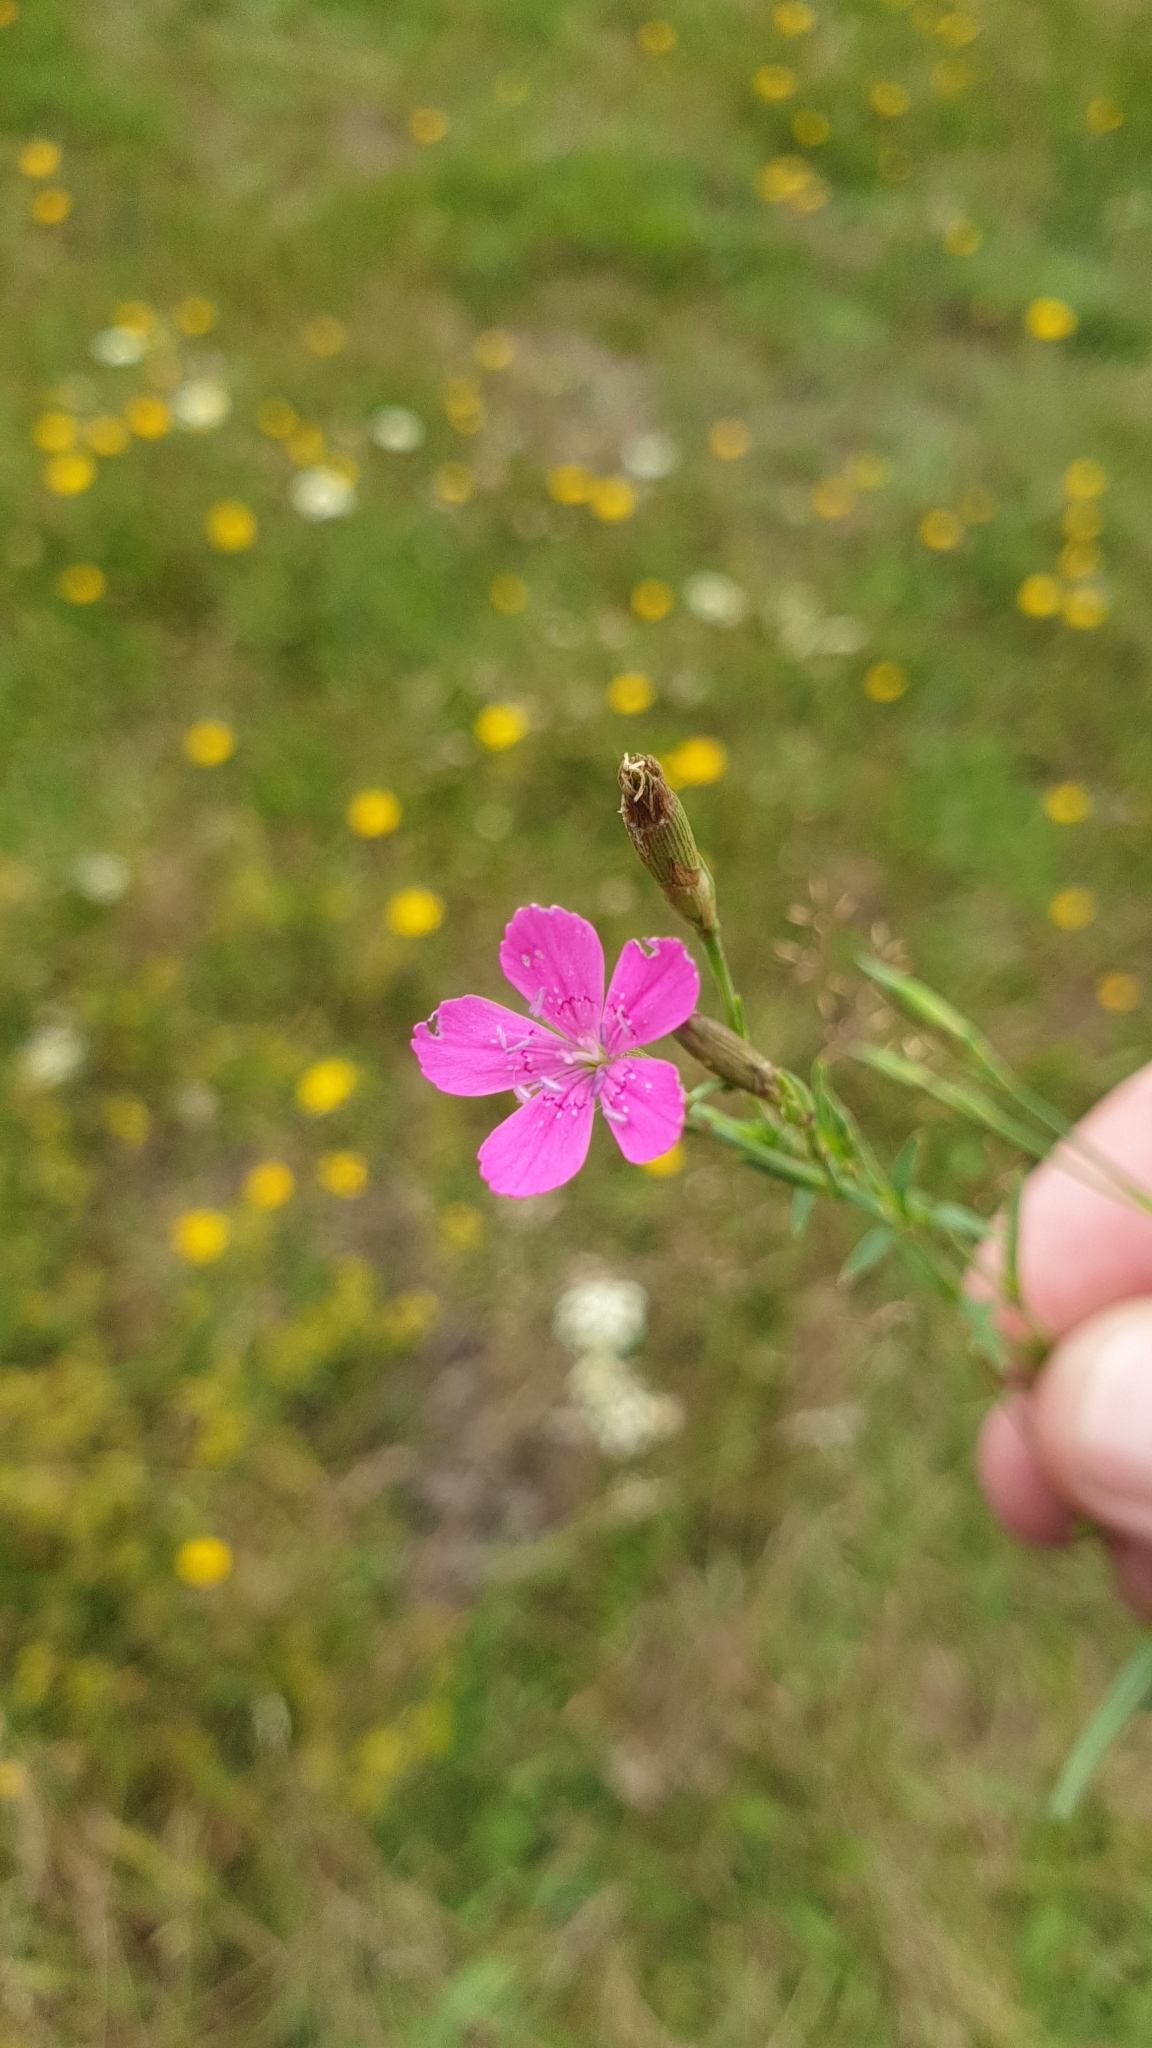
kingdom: Plantae
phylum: Tracheophyta
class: Magnoliopsida
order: Caryophyllales
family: Caryophyllaceae
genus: Dianthus
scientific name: Dianthus deltoides
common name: Maiden pink
